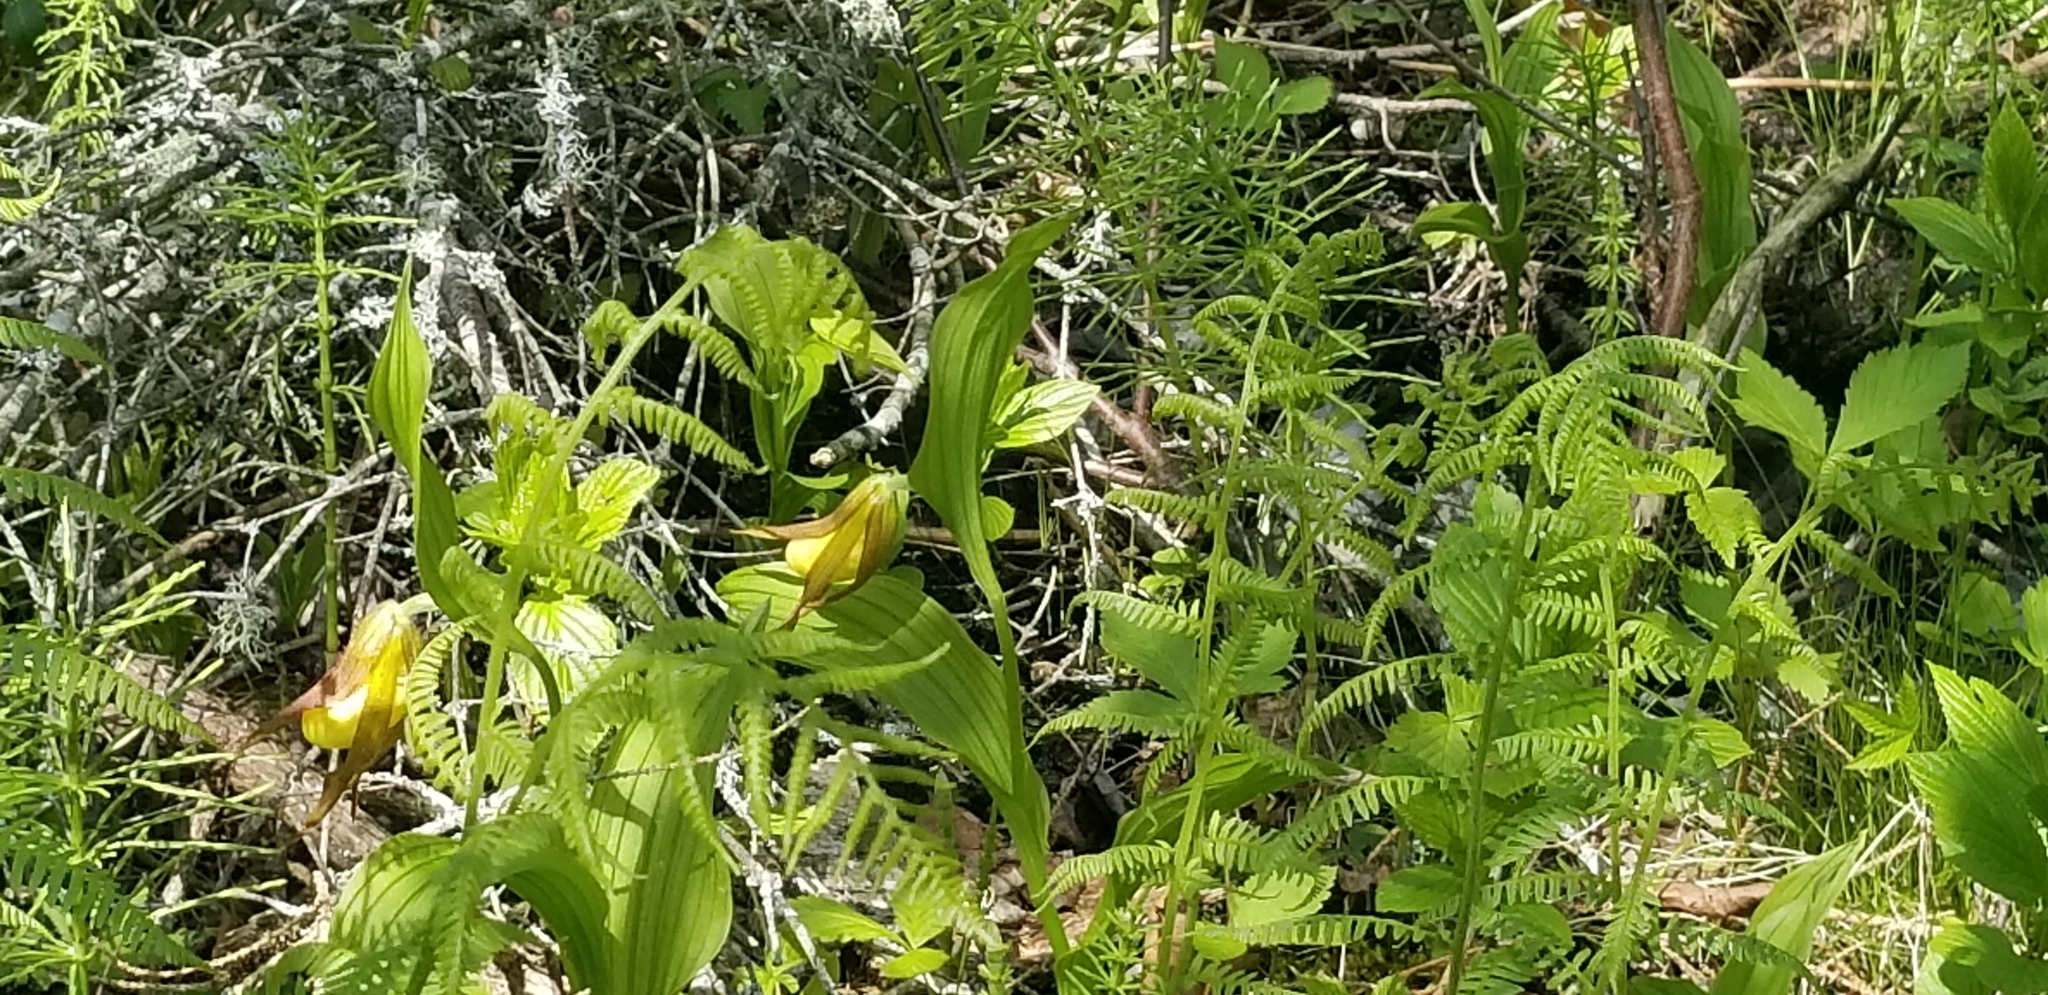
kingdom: Plantae
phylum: Tracheophyta
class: Liliopsida
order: Asparagales
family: Orchidaceae
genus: Cypripedium
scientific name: Cypripedium parviflorum
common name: American yellow lady's-slipper
